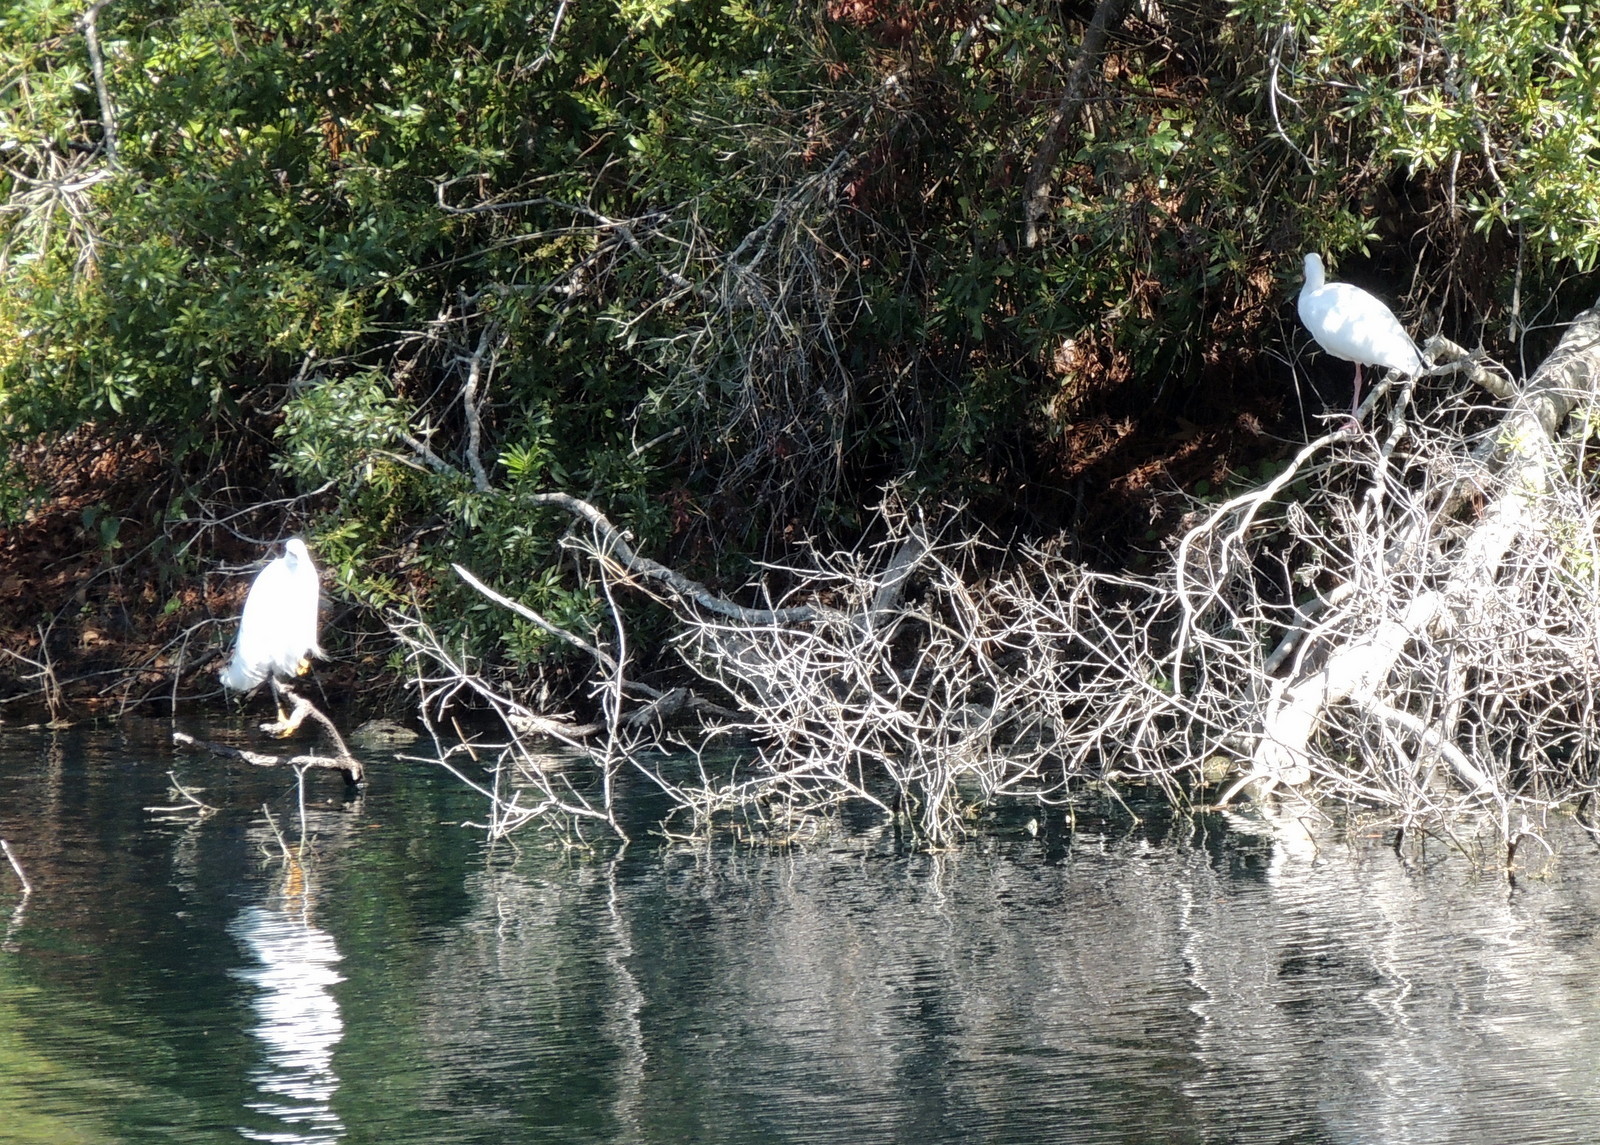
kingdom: Animalia
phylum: Chordata
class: Aves
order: Pelecaniformes
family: Ardeidae
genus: Egretta
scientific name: Egretta thula
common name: Snowy egret
